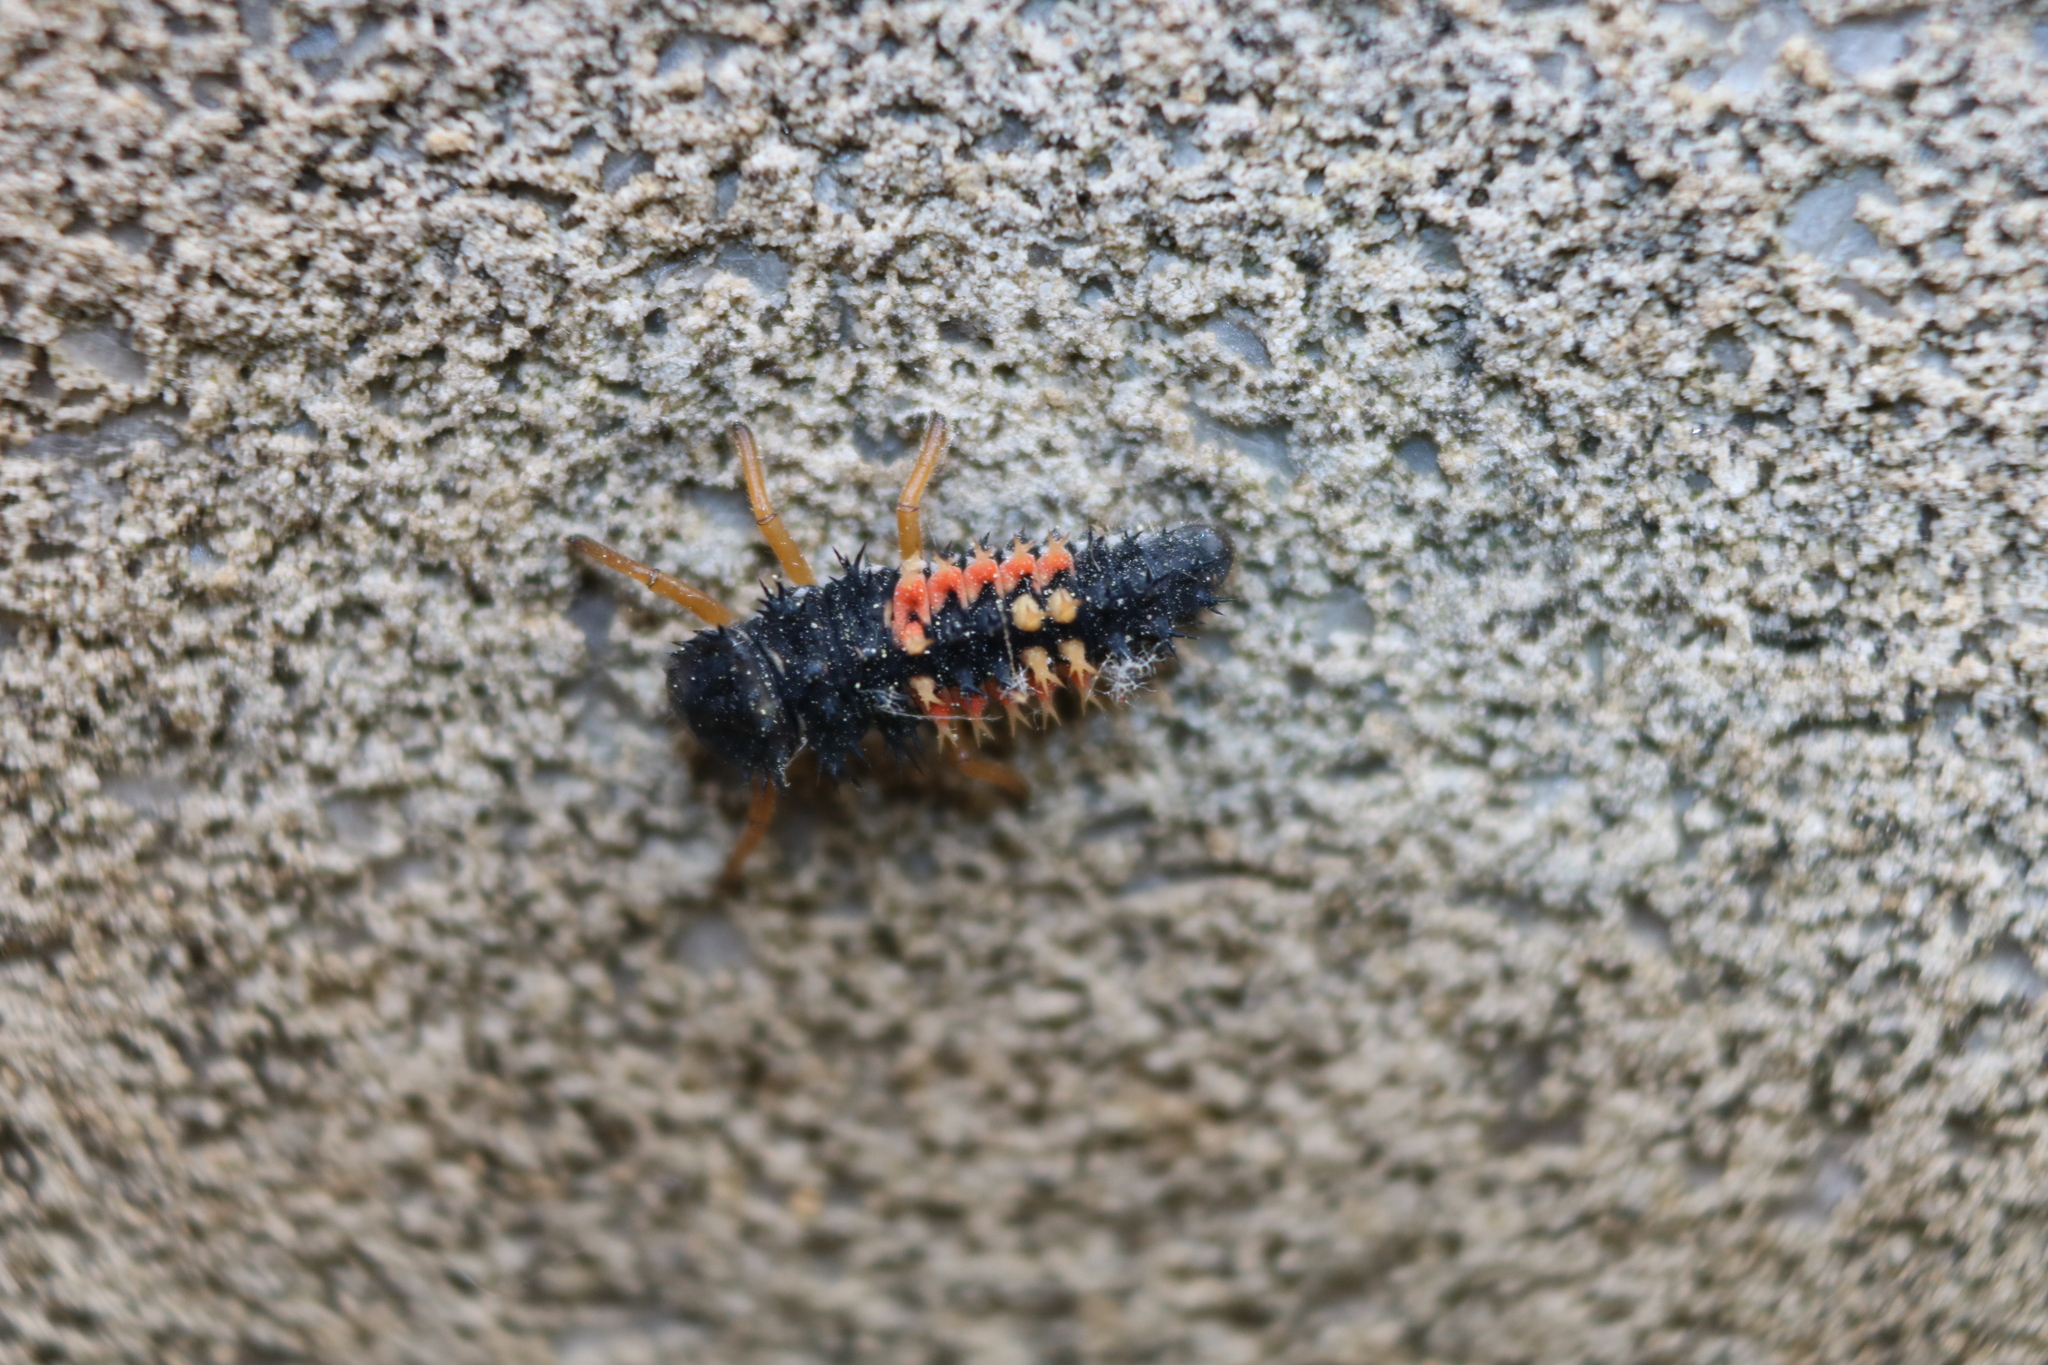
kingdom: Animalia
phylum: Arthropoda
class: Insecta
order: Coleoptera
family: Coccinellidae
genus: Harmonia
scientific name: Harmonia axyridis
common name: Harlequin ladybird
